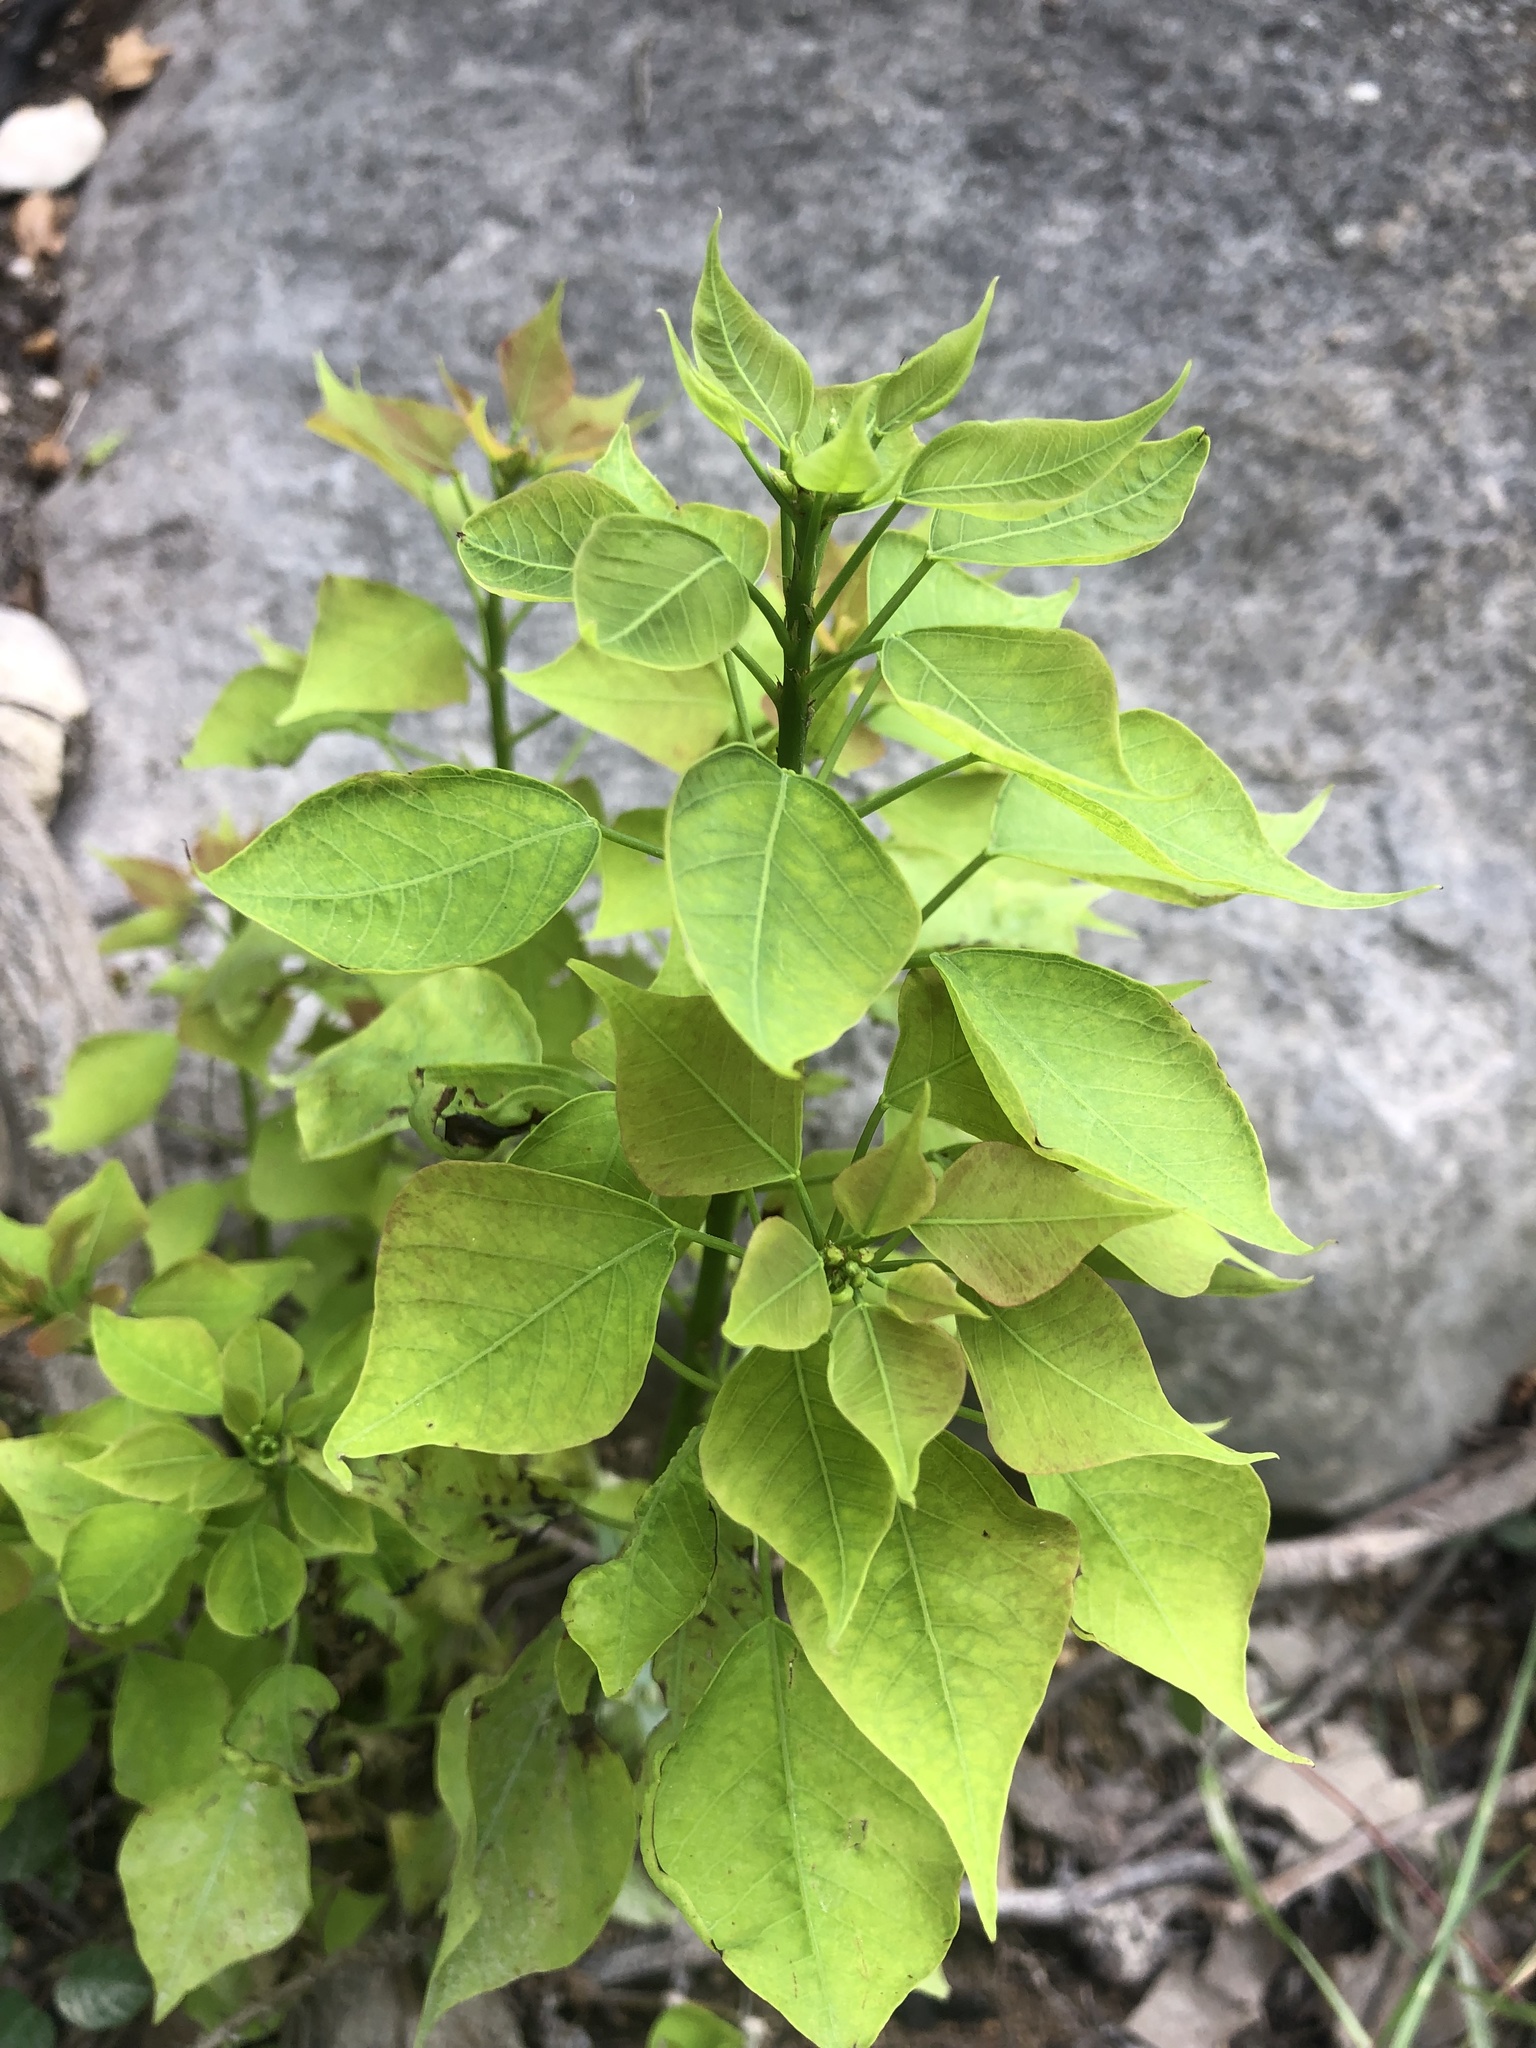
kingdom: Plantae
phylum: Tracheophyta
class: Magnoliopsida
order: Malpighiales
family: Euphorbiaceae
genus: Triadica
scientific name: Triadica sebifera
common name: Chinese tallow
